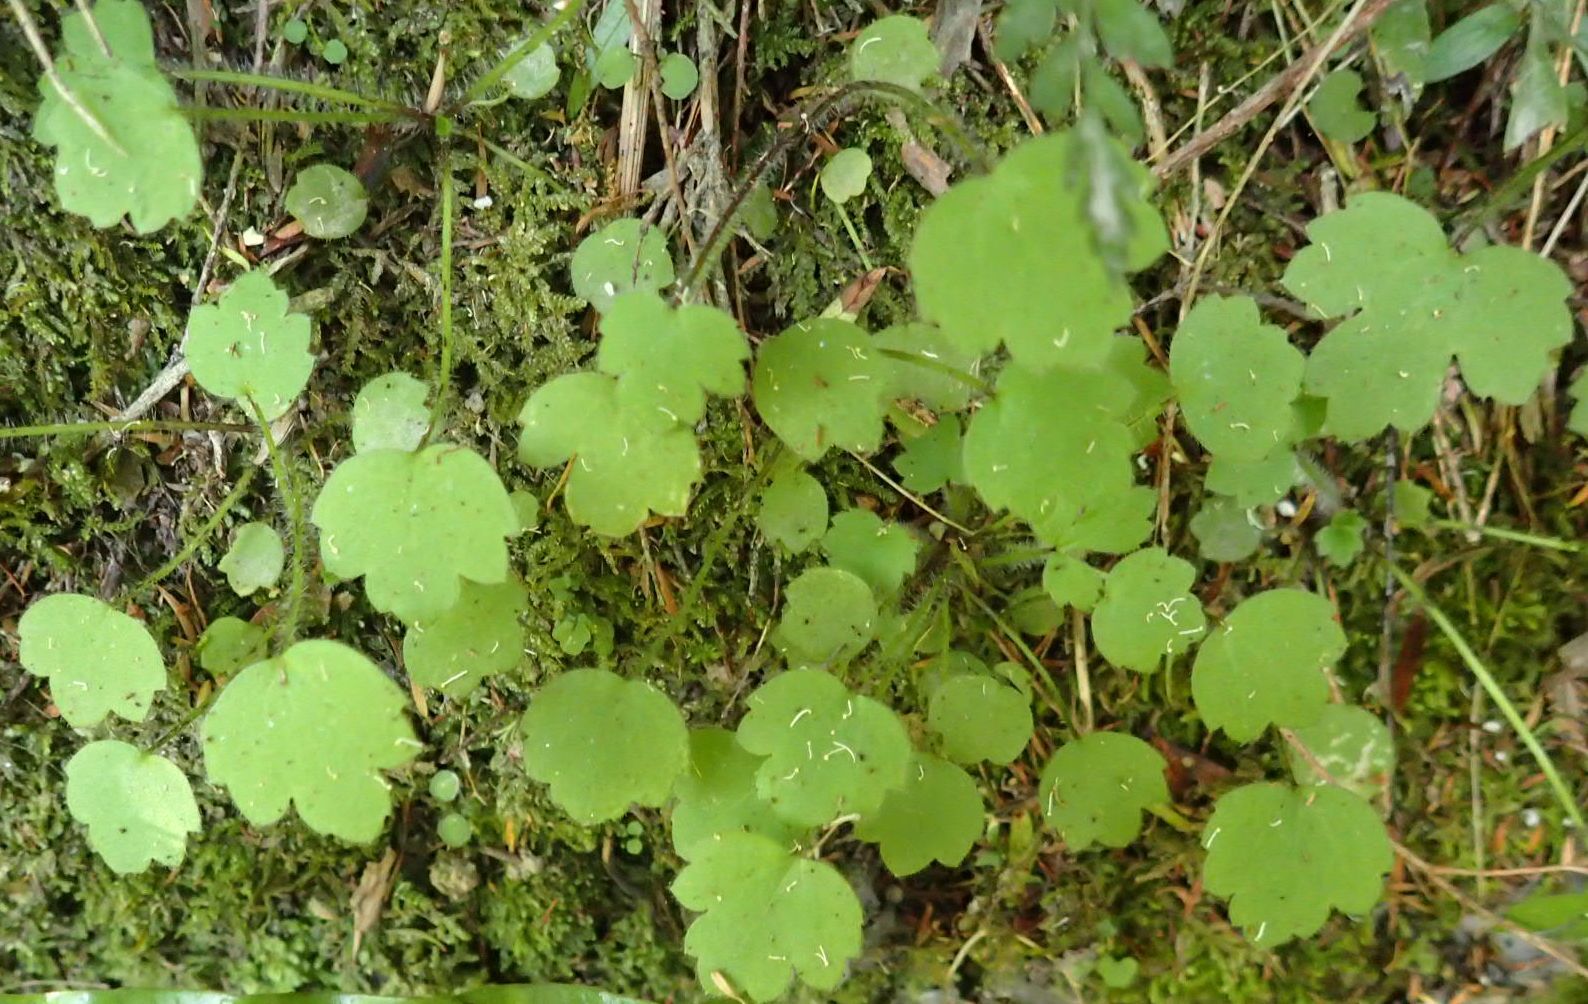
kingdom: Plantae
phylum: Tracheophyta
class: Magnoliopsida
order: Ranunculales
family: Ranunculaceae
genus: Ranunculus
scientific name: Ranunculus reflexus
